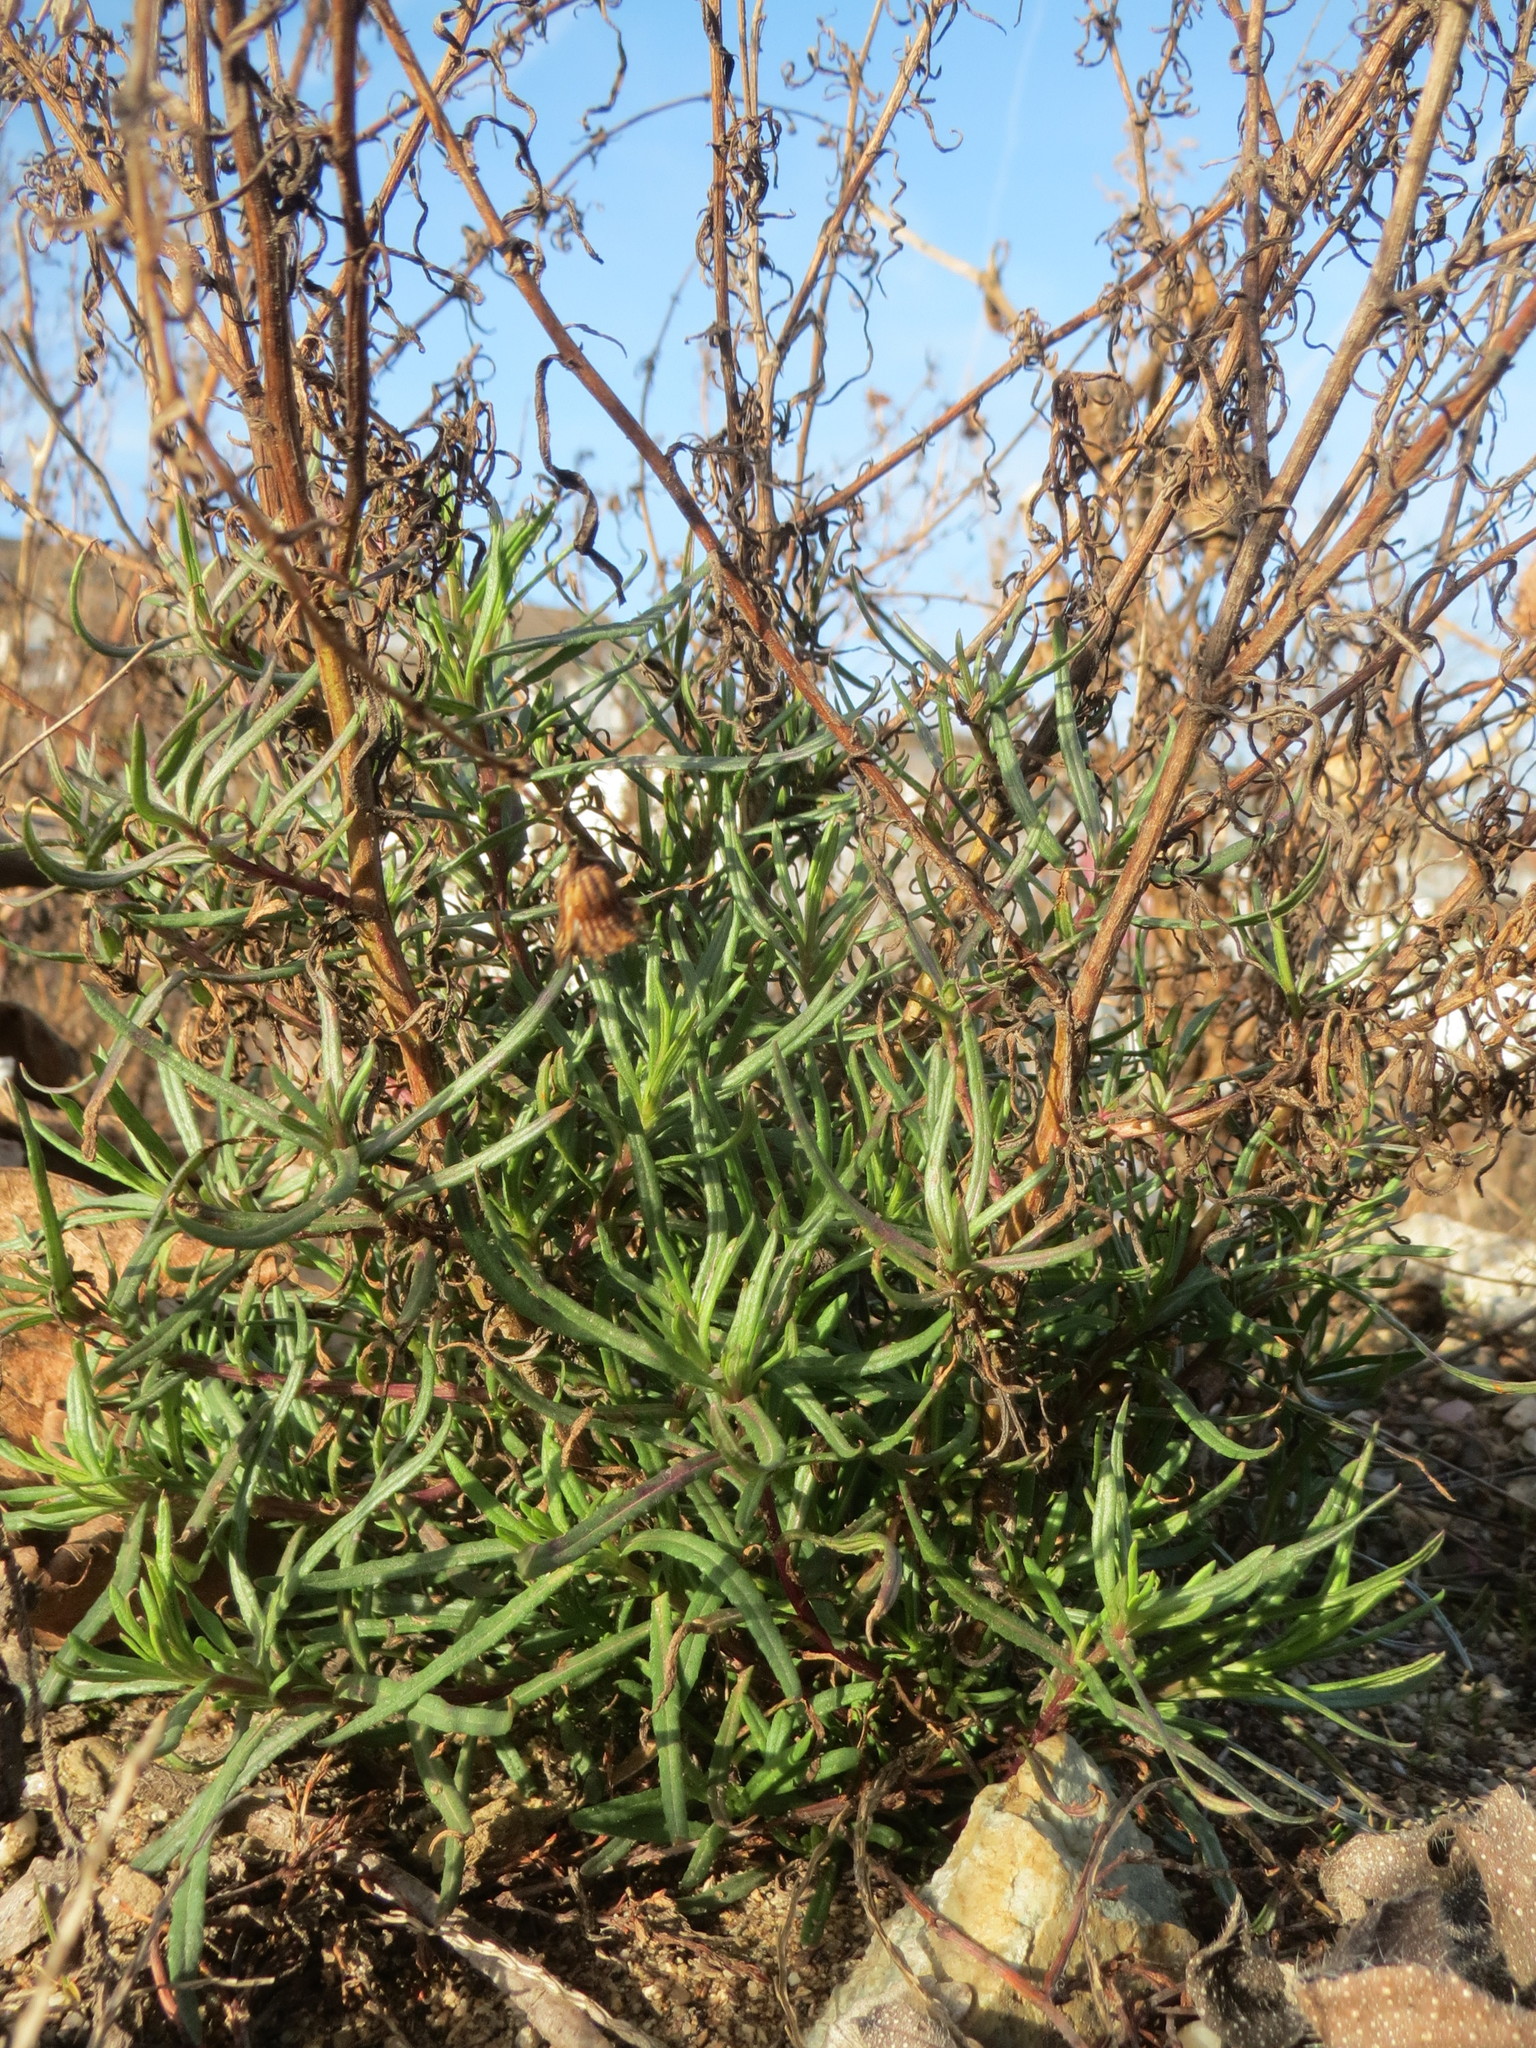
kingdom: Plantae
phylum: Tracheophyta
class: Magnoliopsida
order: Asterales
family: Asteraceae
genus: Senecio
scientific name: Senecio inaequidens
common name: Narrow-leaved ragwort
